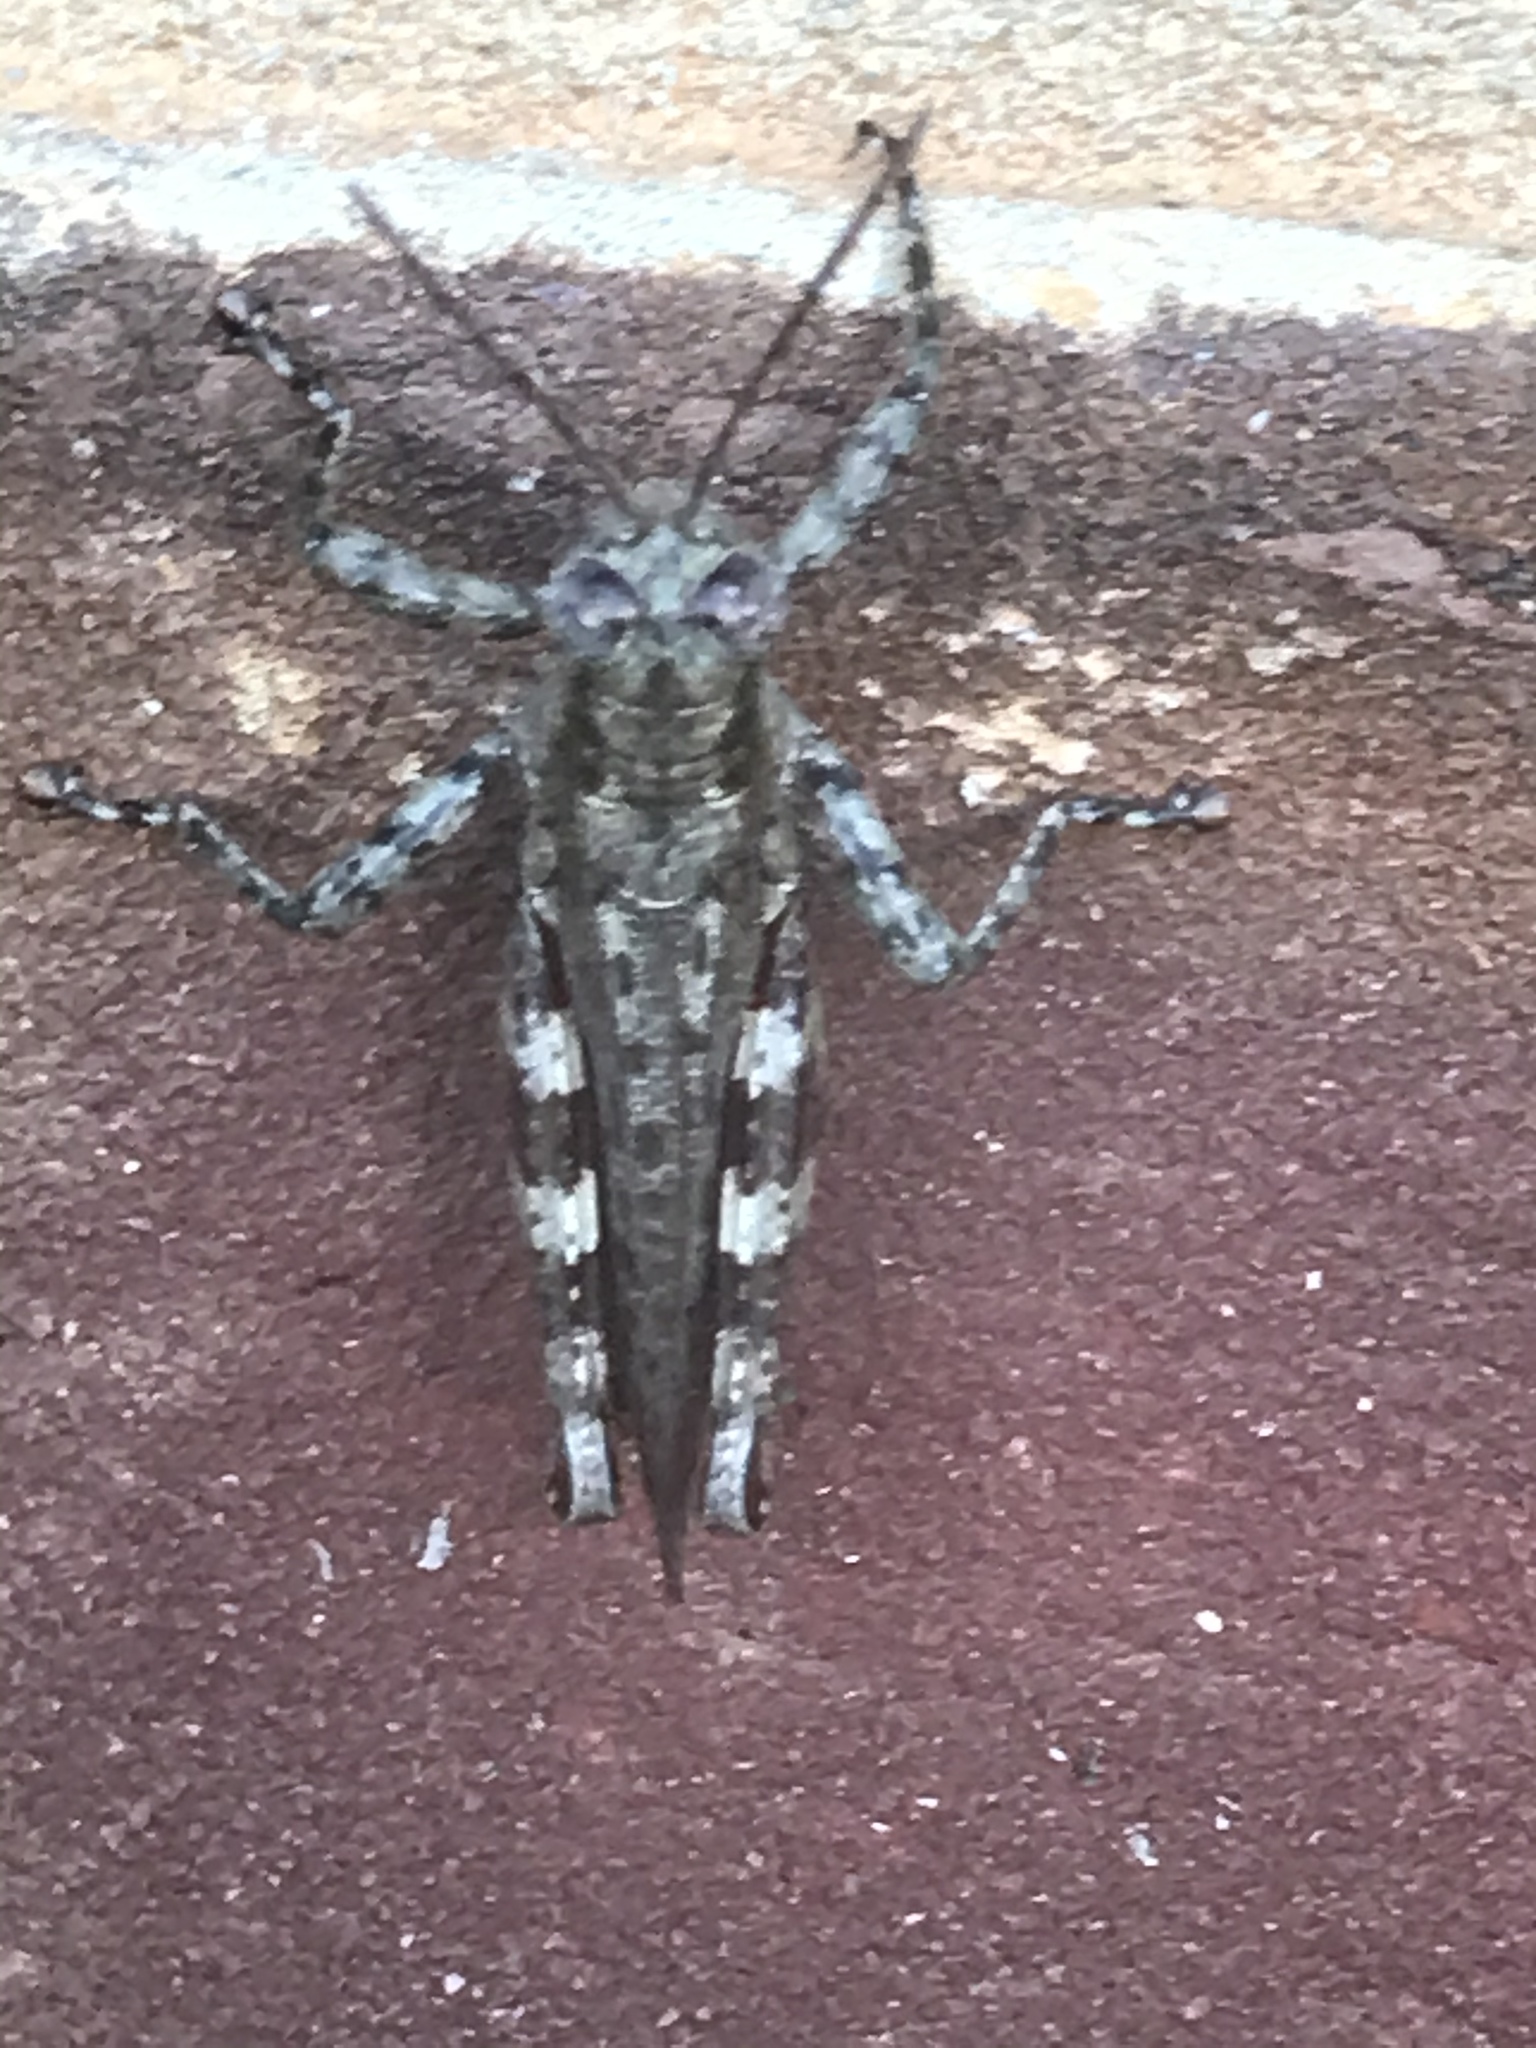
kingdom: Animalia
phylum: Arthropoda
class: Insecta
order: Orthoptera
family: Acrididae
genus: Melanoplus
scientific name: Melanoplus punctulatus
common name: Pine-tree spur-throat grasshopper
